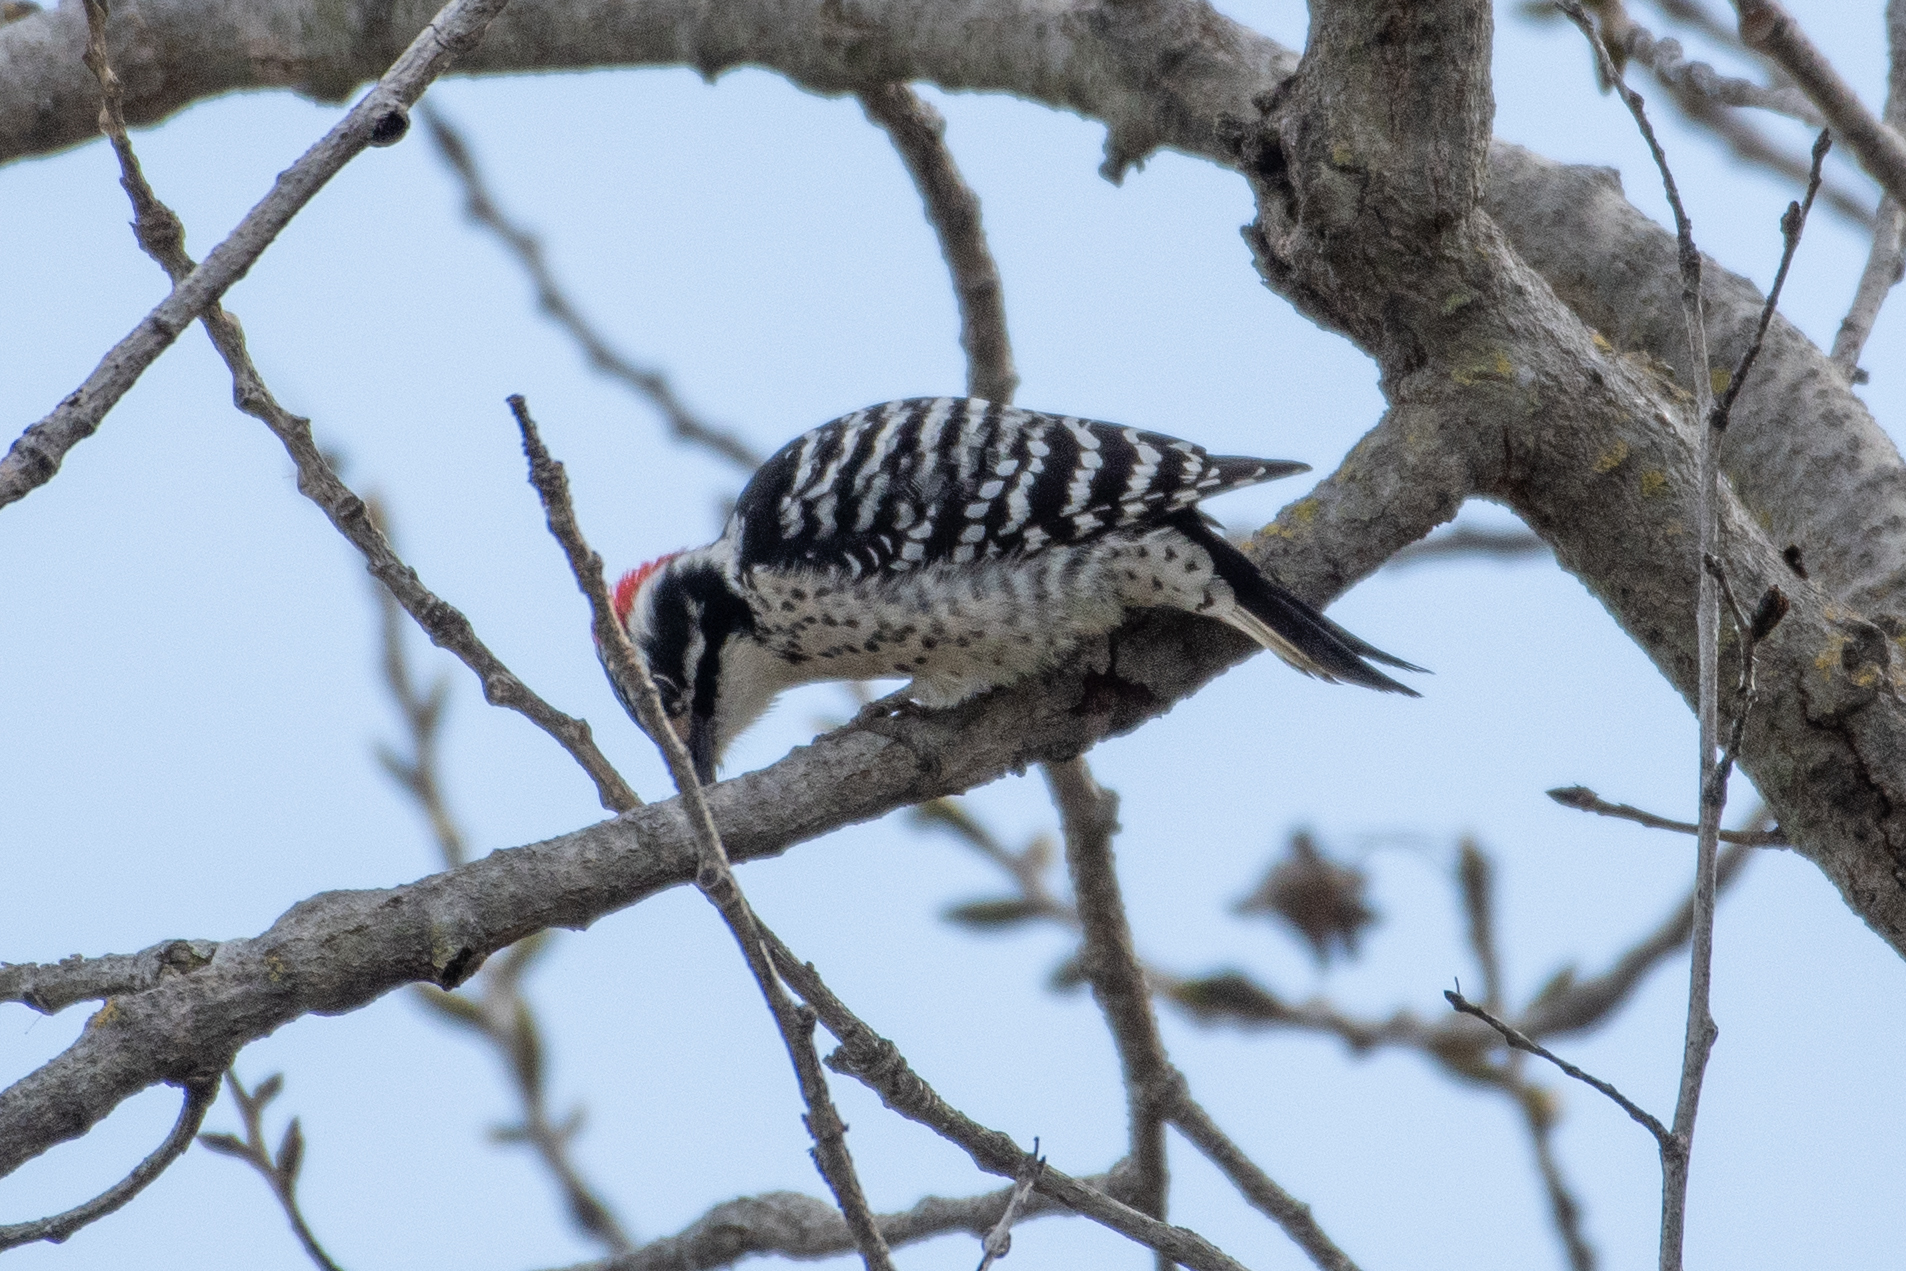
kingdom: Animalia
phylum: Chordata
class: Aves
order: Piciformes
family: Picidae
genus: Dryobates
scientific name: Dryobates nuttallii
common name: Nuttall's woodpecker
